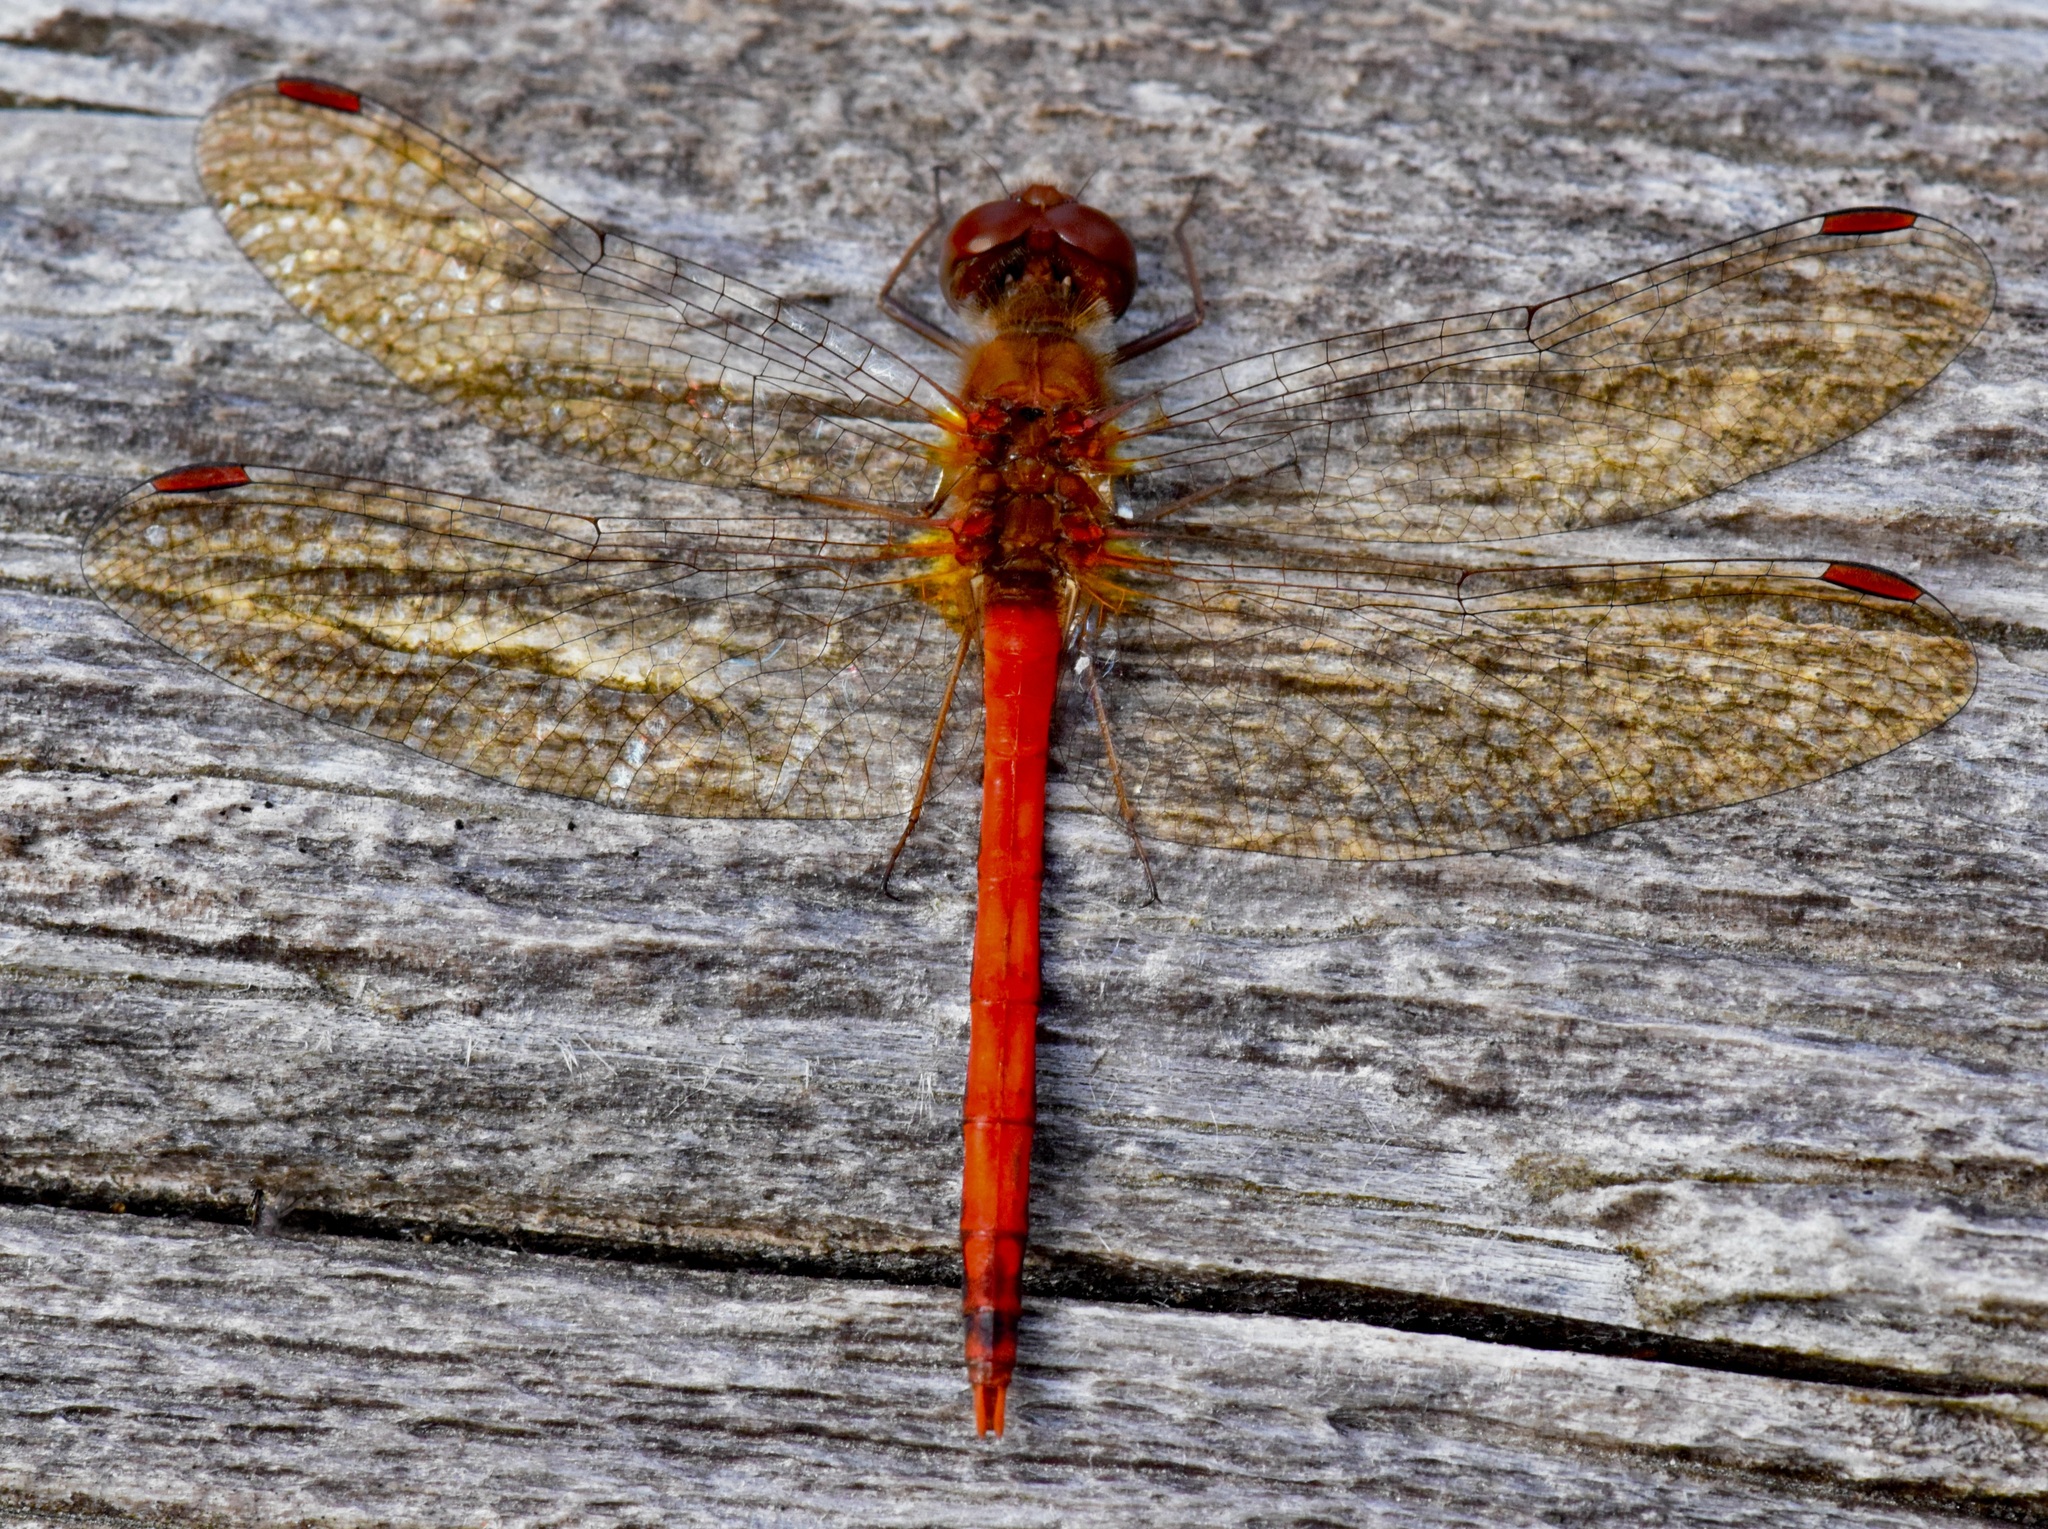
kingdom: Animalia
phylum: Arthropoda
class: Insecta
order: Odonata
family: Libellulidae
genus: Sympetrum
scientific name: Sympetrum vicinum
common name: Autumn meadowhawk
